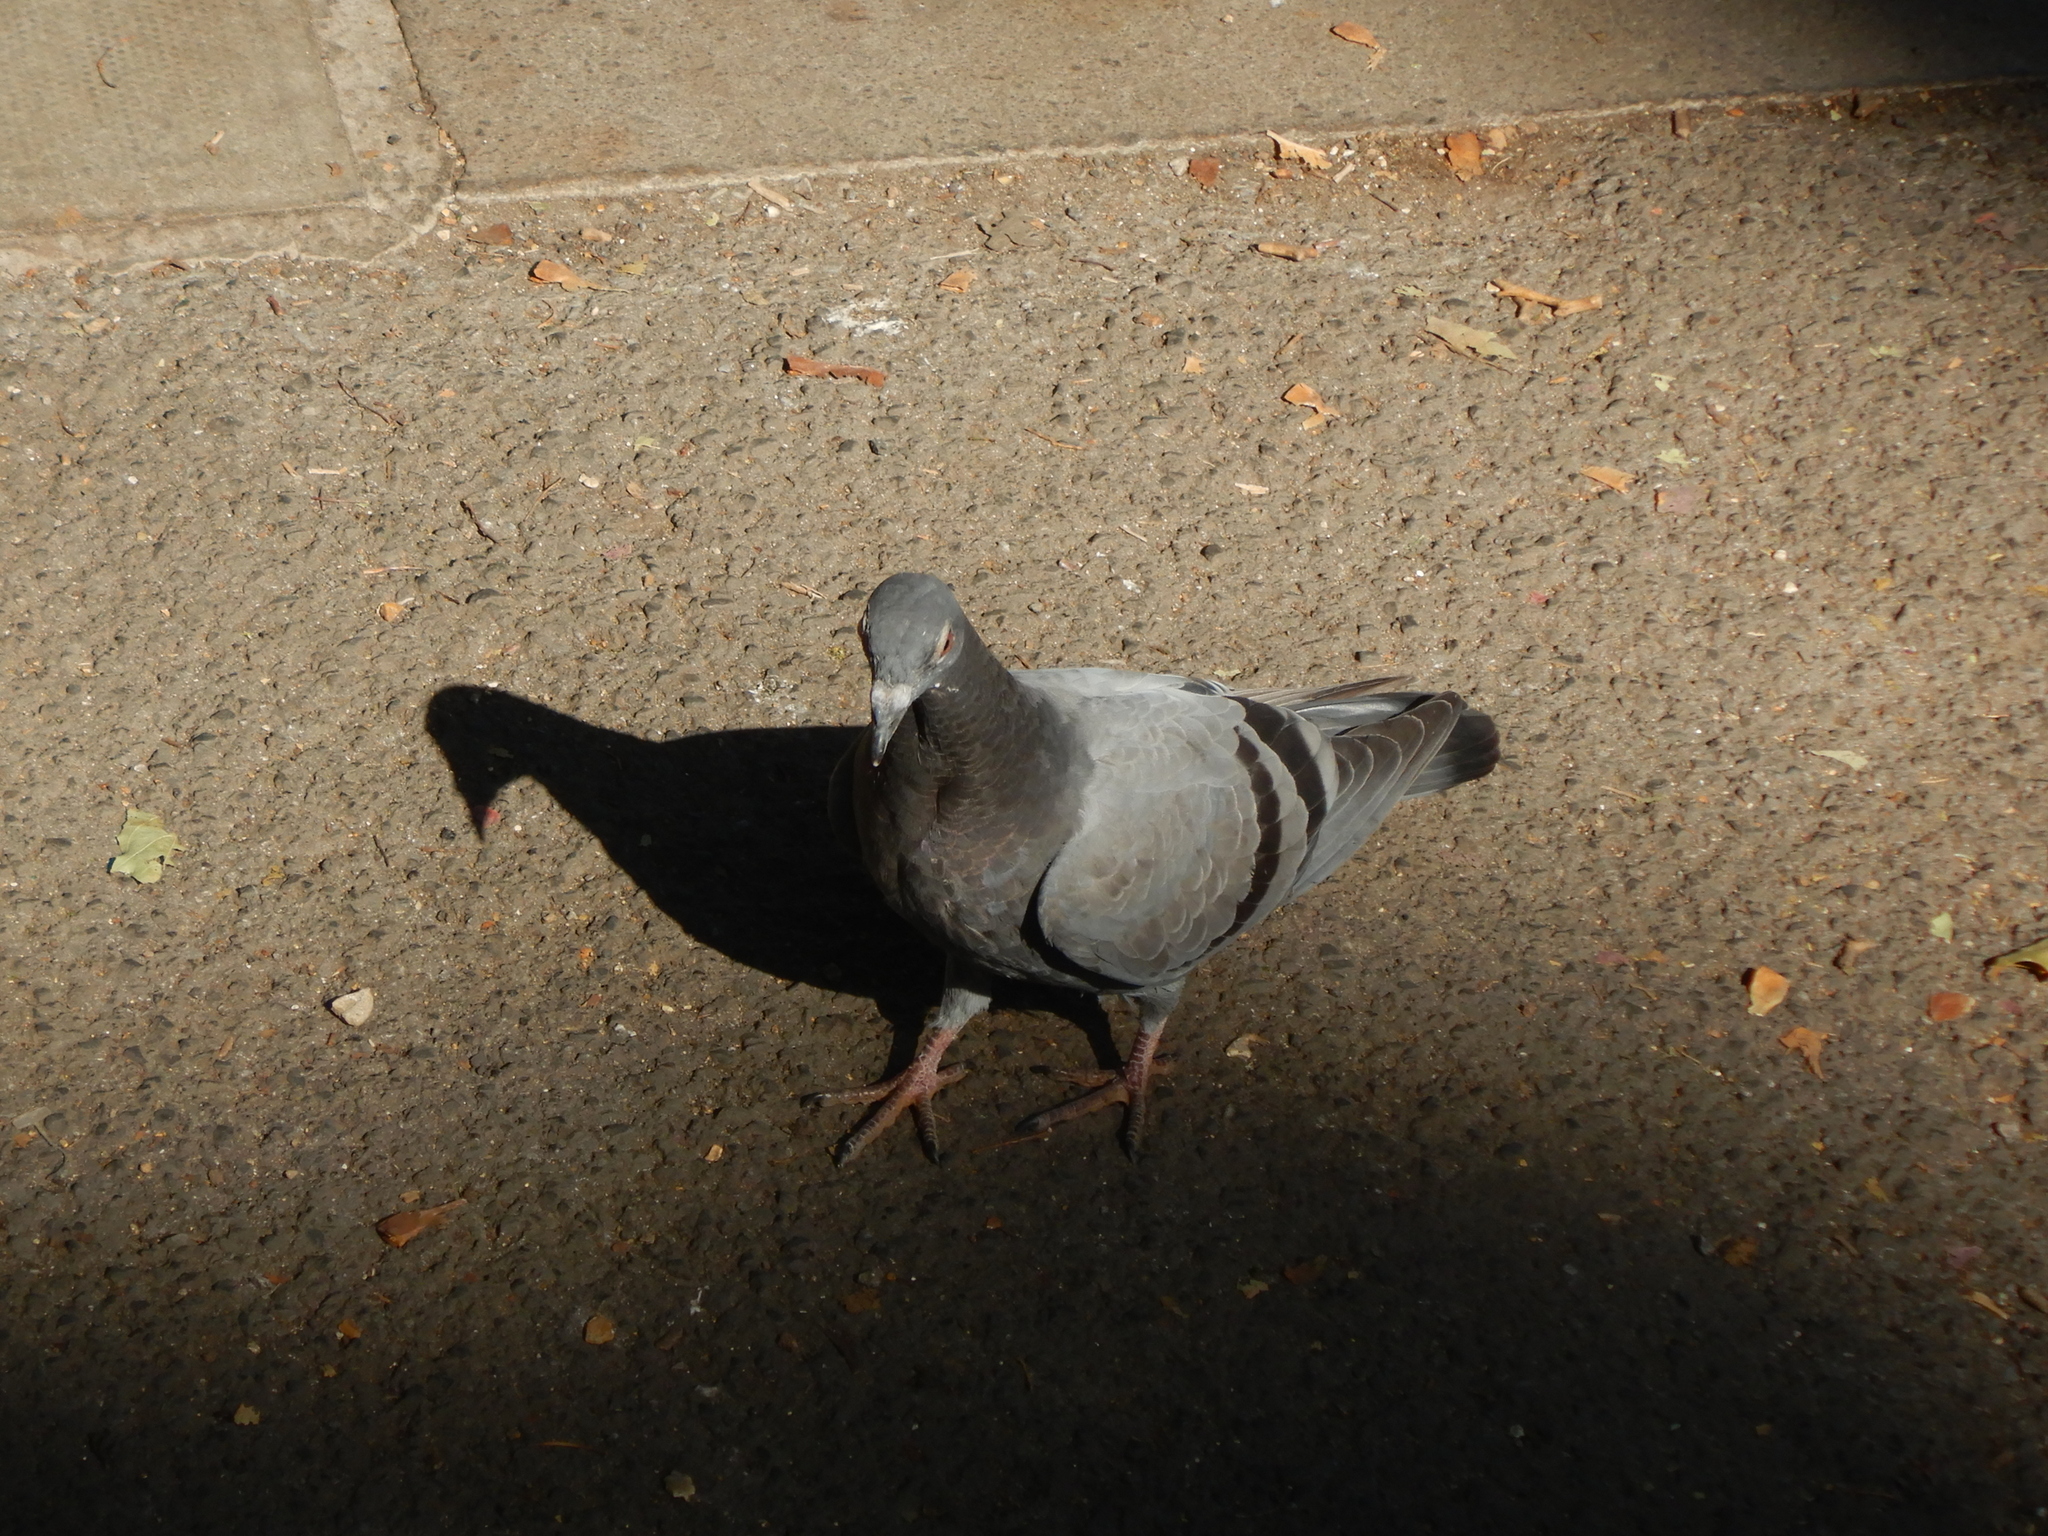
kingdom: Animalia
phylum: Chordata
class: Aves
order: Columbiformes
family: Columbidae
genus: Columba
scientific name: Columba livia
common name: Rock pigeon
